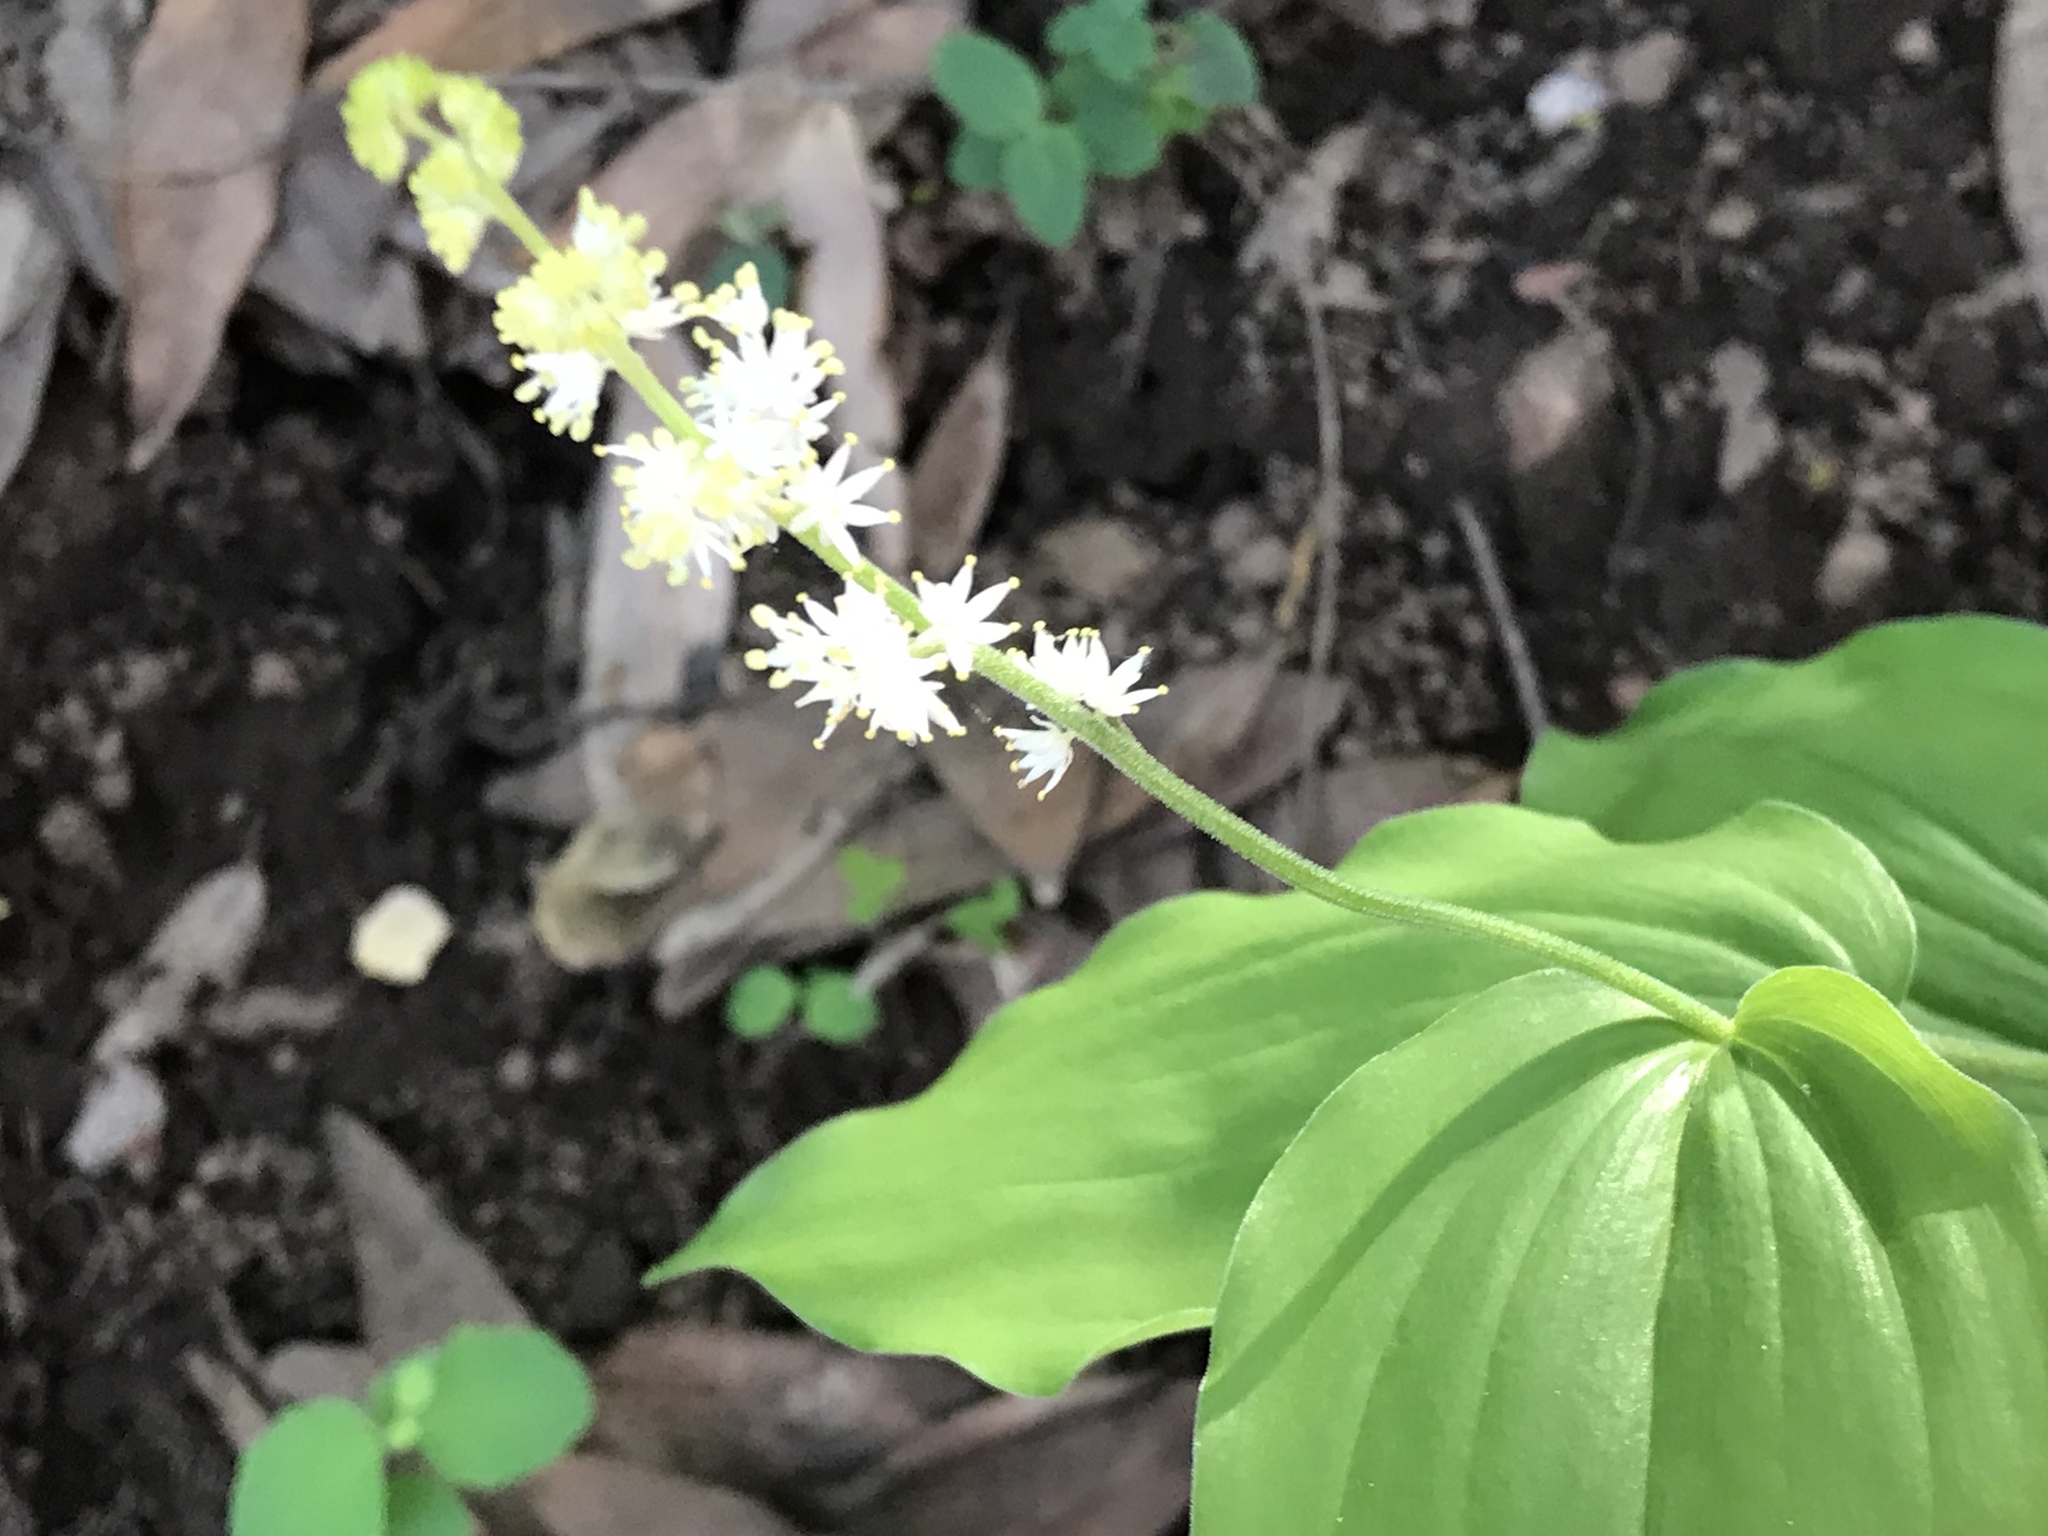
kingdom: Plantae
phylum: Tracheophyta
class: Liliopsida
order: Asparagales
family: Asparagaceae
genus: Maianthemum
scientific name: Maianthemum racemosum
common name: False spikenard
